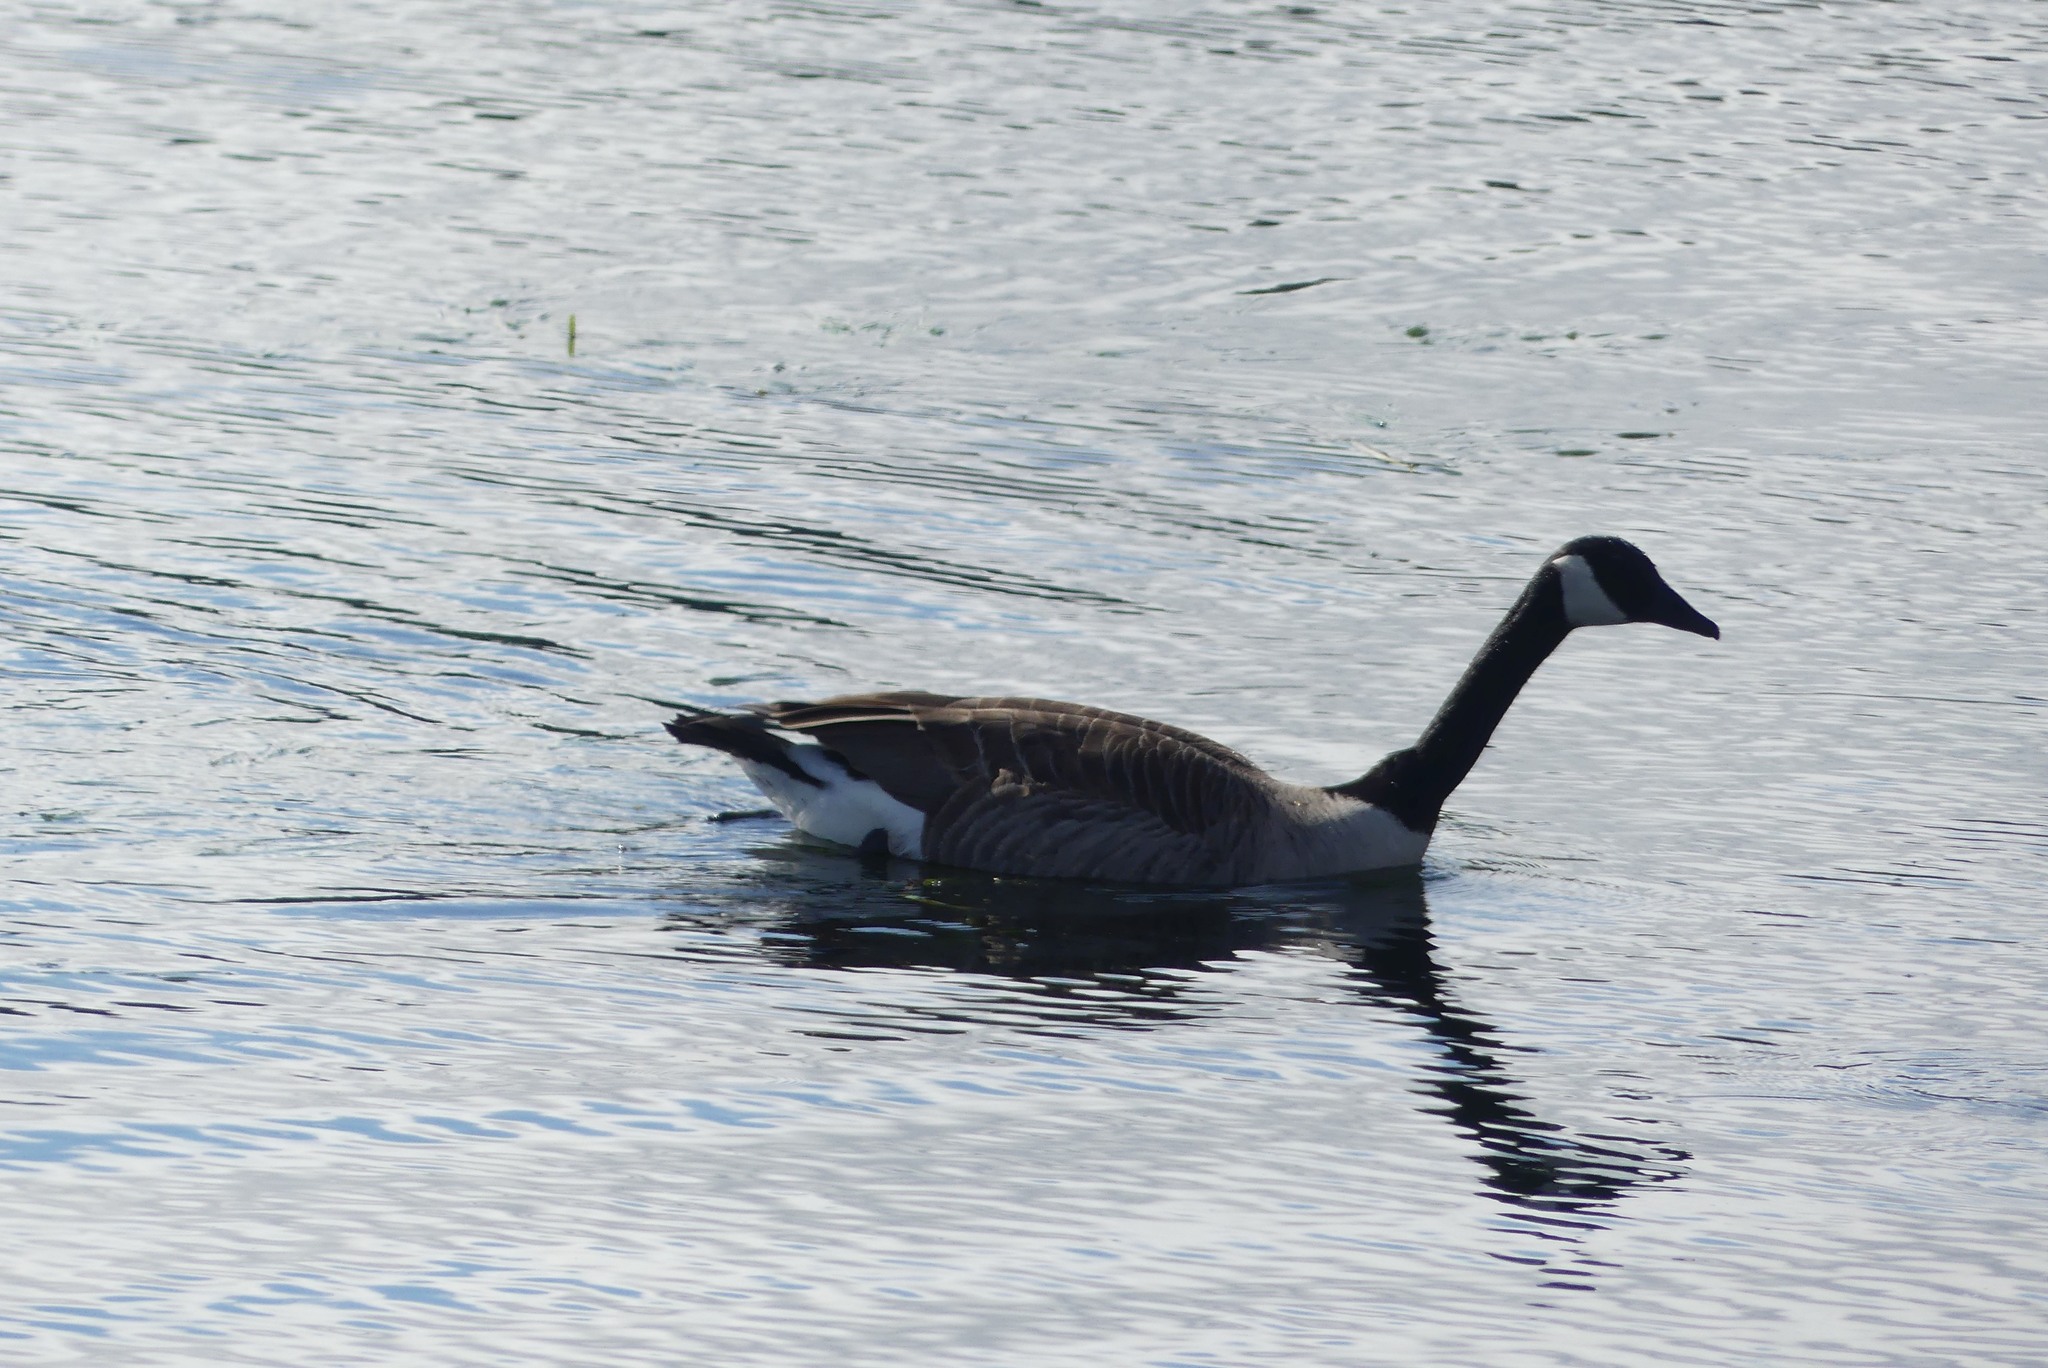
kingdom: Animalia
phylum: Chordata
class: Aves
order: Anseriformes
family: Anatidae
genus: Branta
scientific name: Branta canadensis
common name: Canada goose
